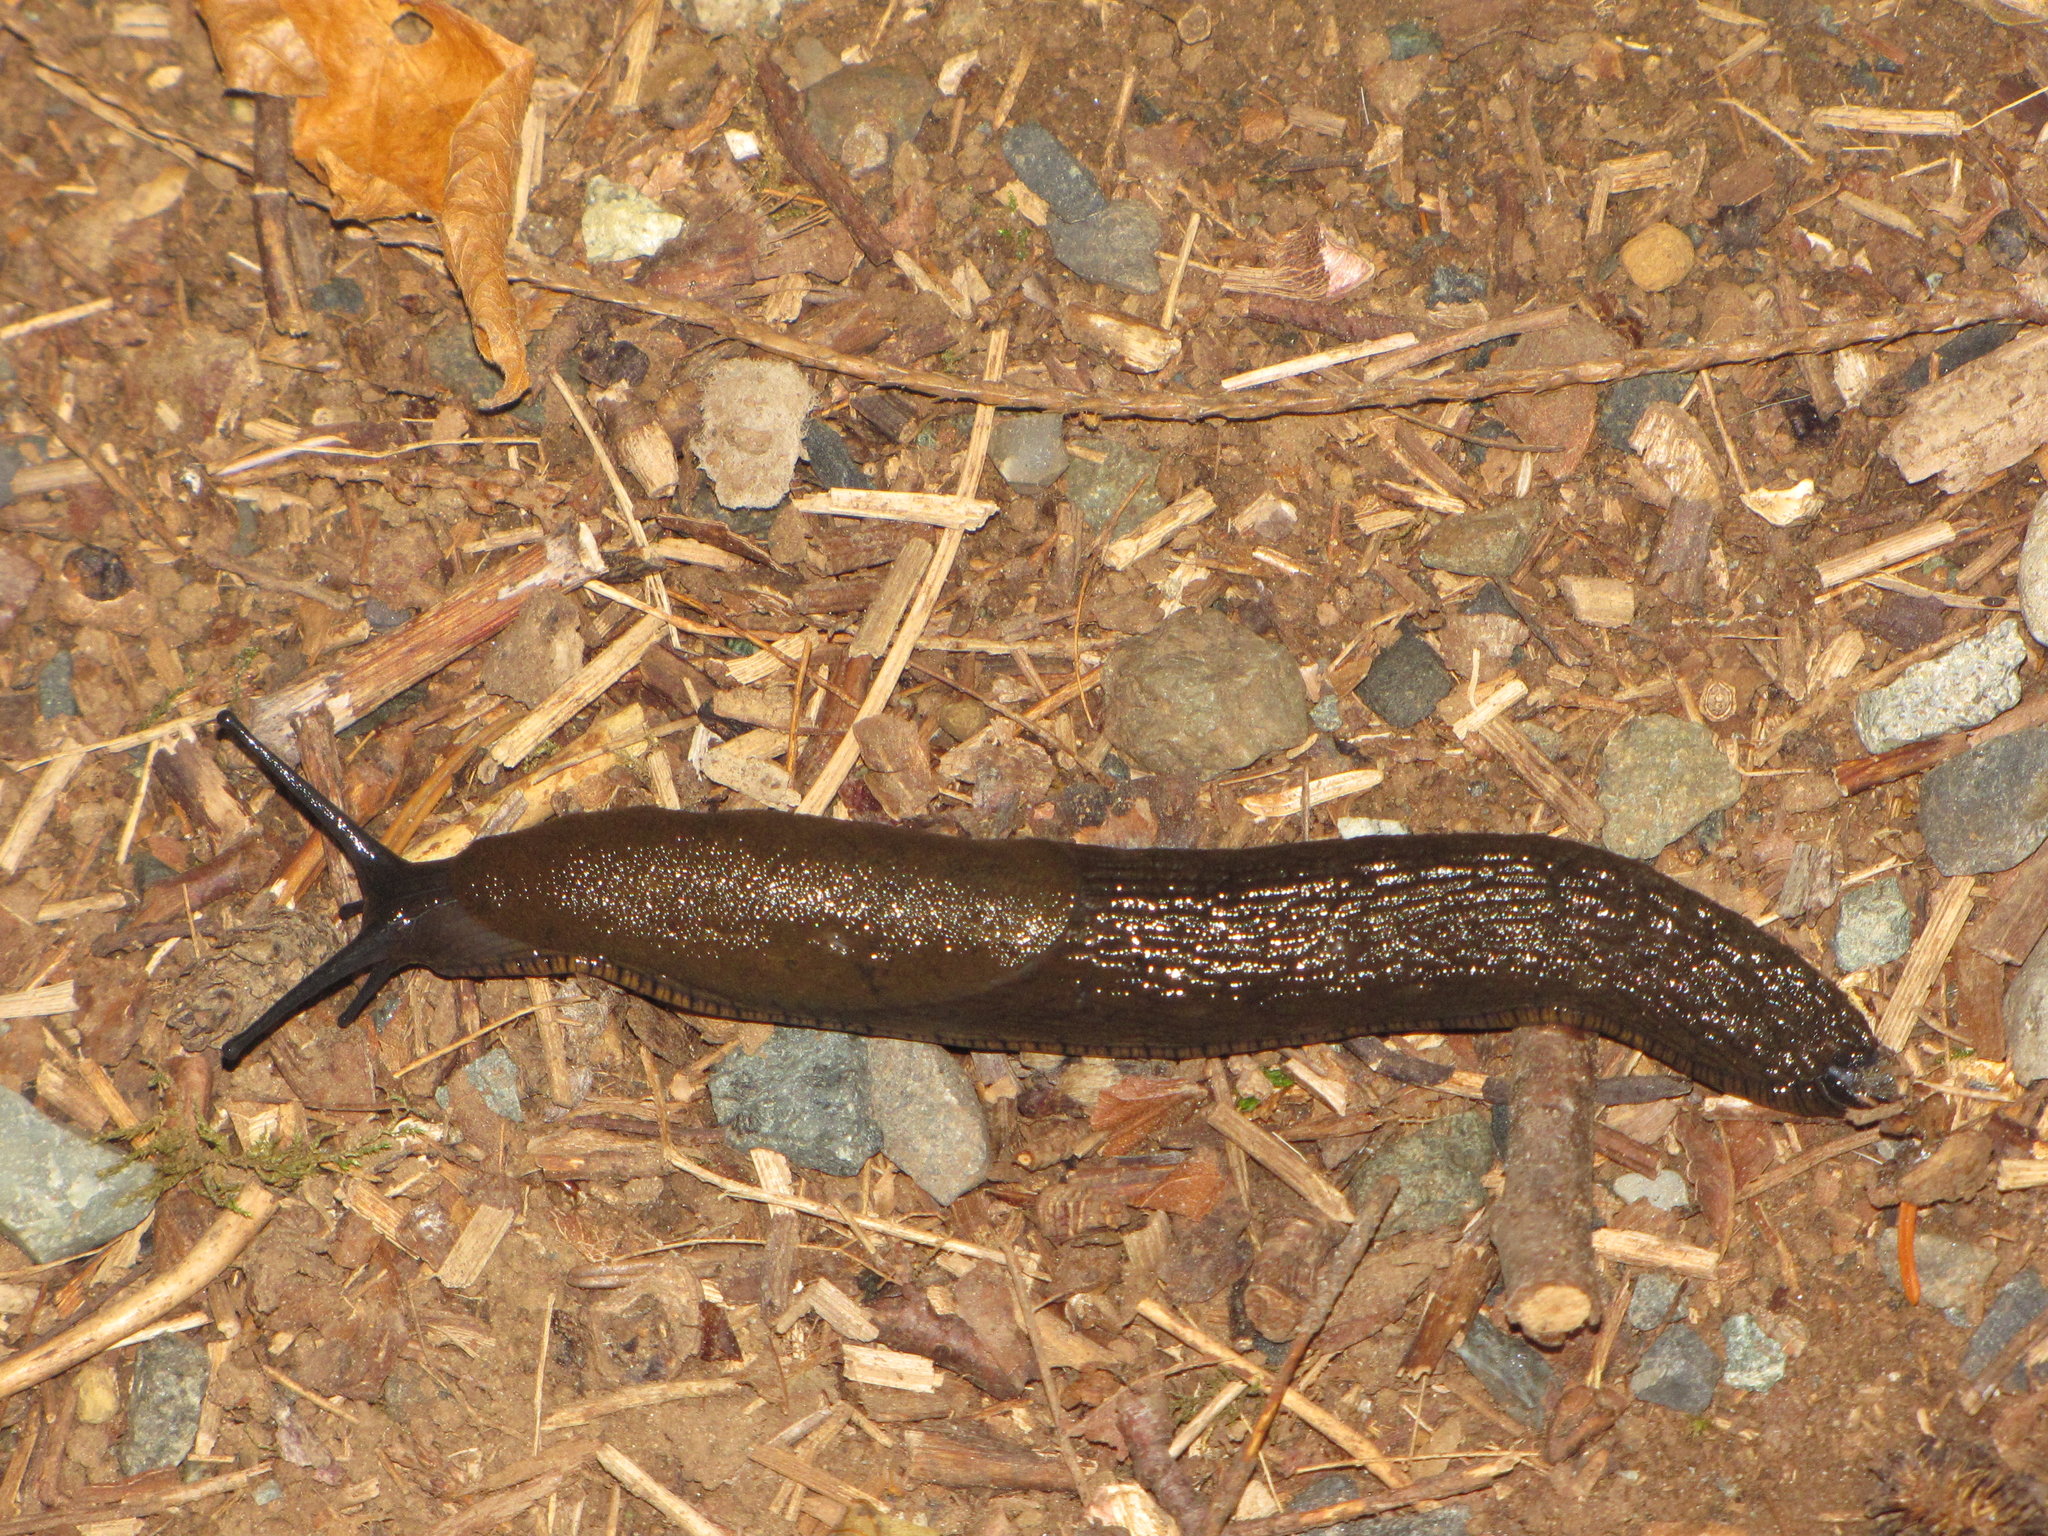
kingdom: Animalia
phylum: Mollusca
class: Gastropoda
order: Stylommatophora
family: Arionidae
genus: Arion
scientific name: Arion rufus
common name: Chocolate arion
